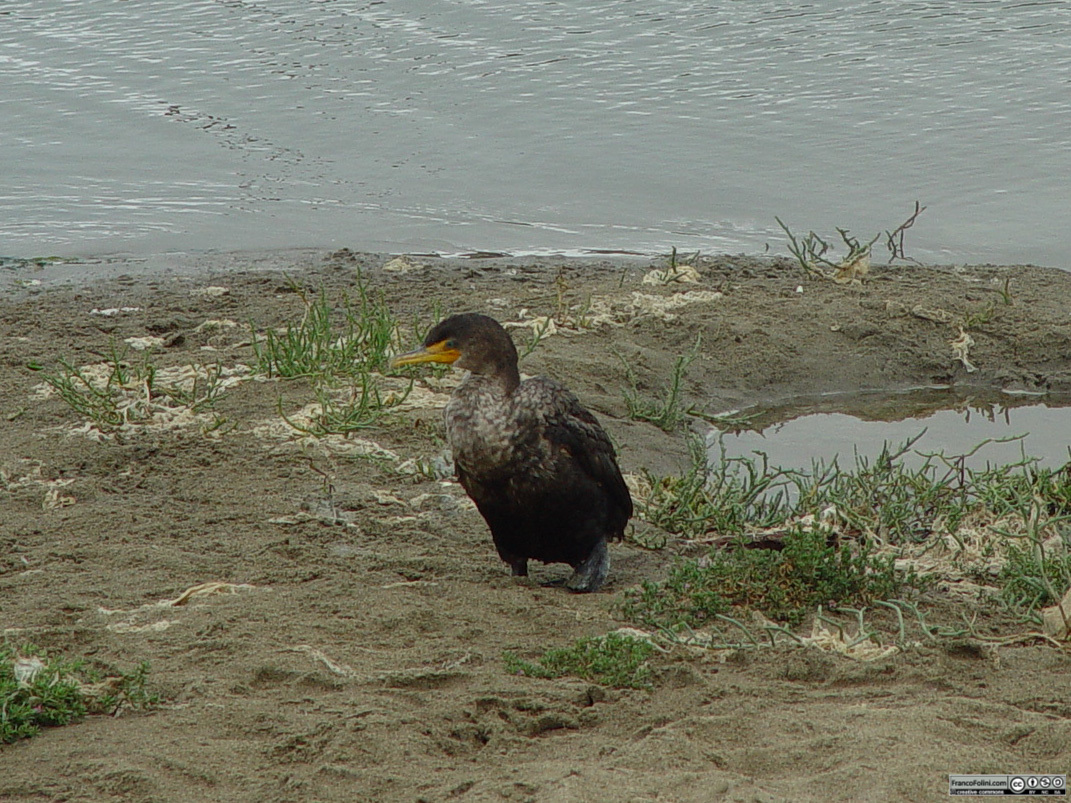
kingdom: Animalia
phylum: Chordata
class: Aves
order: Suliformes
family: Phalacrocoracidae
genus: Phalacrocorax
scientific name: Phalacrocorax auritus
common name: Double-crested cormorant
